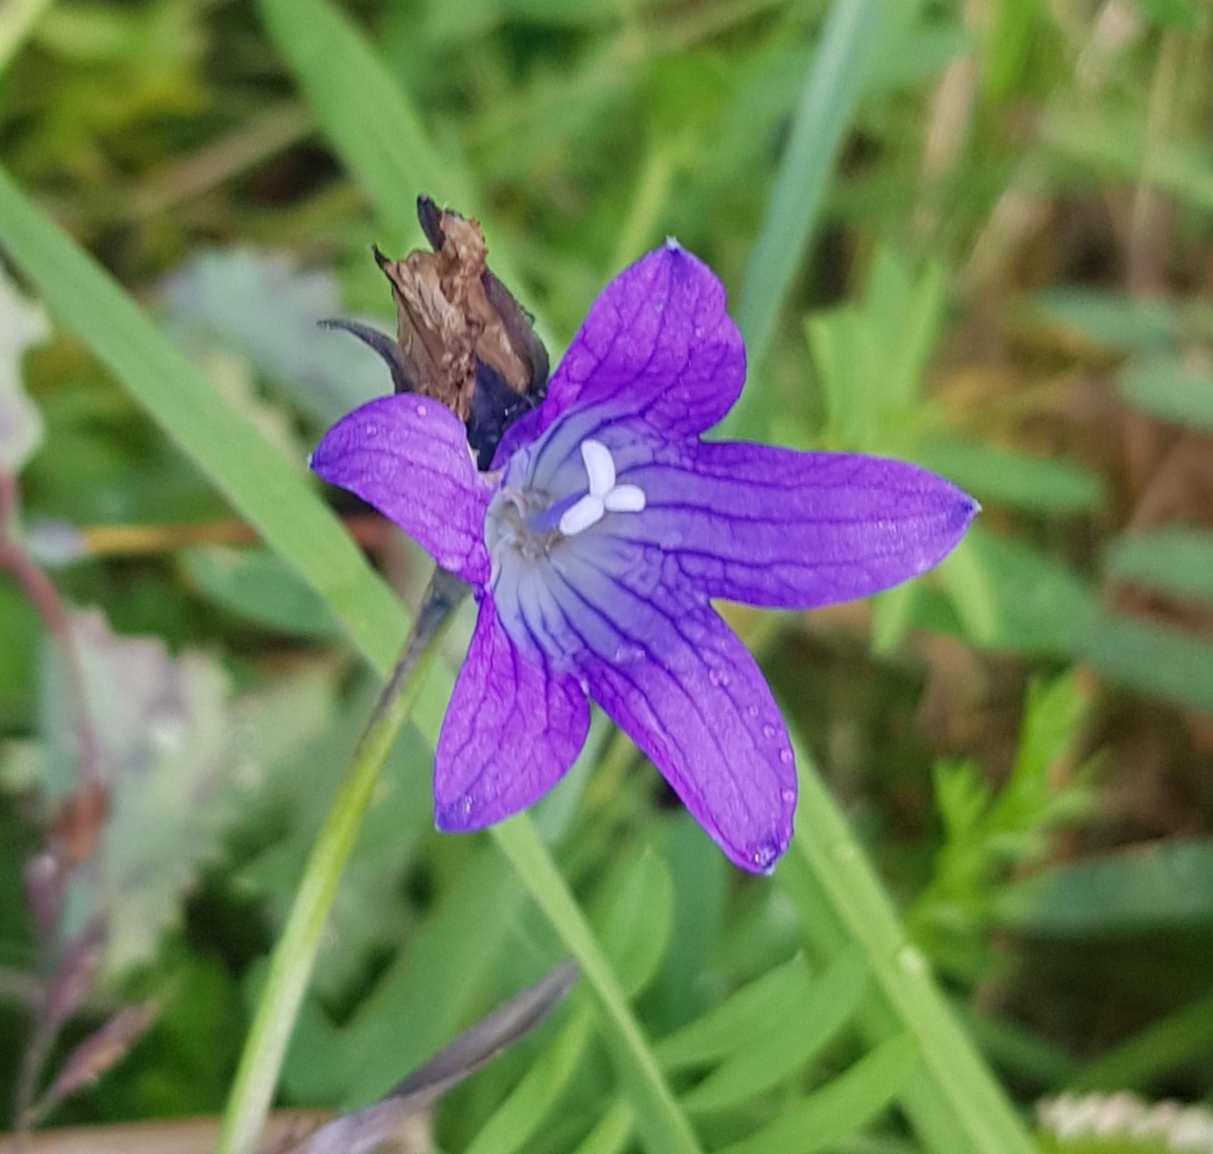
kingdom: Plantae
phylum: Tracheophyta
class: Magnoliopsida
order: Asterales
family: Campanulaceae
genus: Campanula
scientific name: Campanula stevenii
